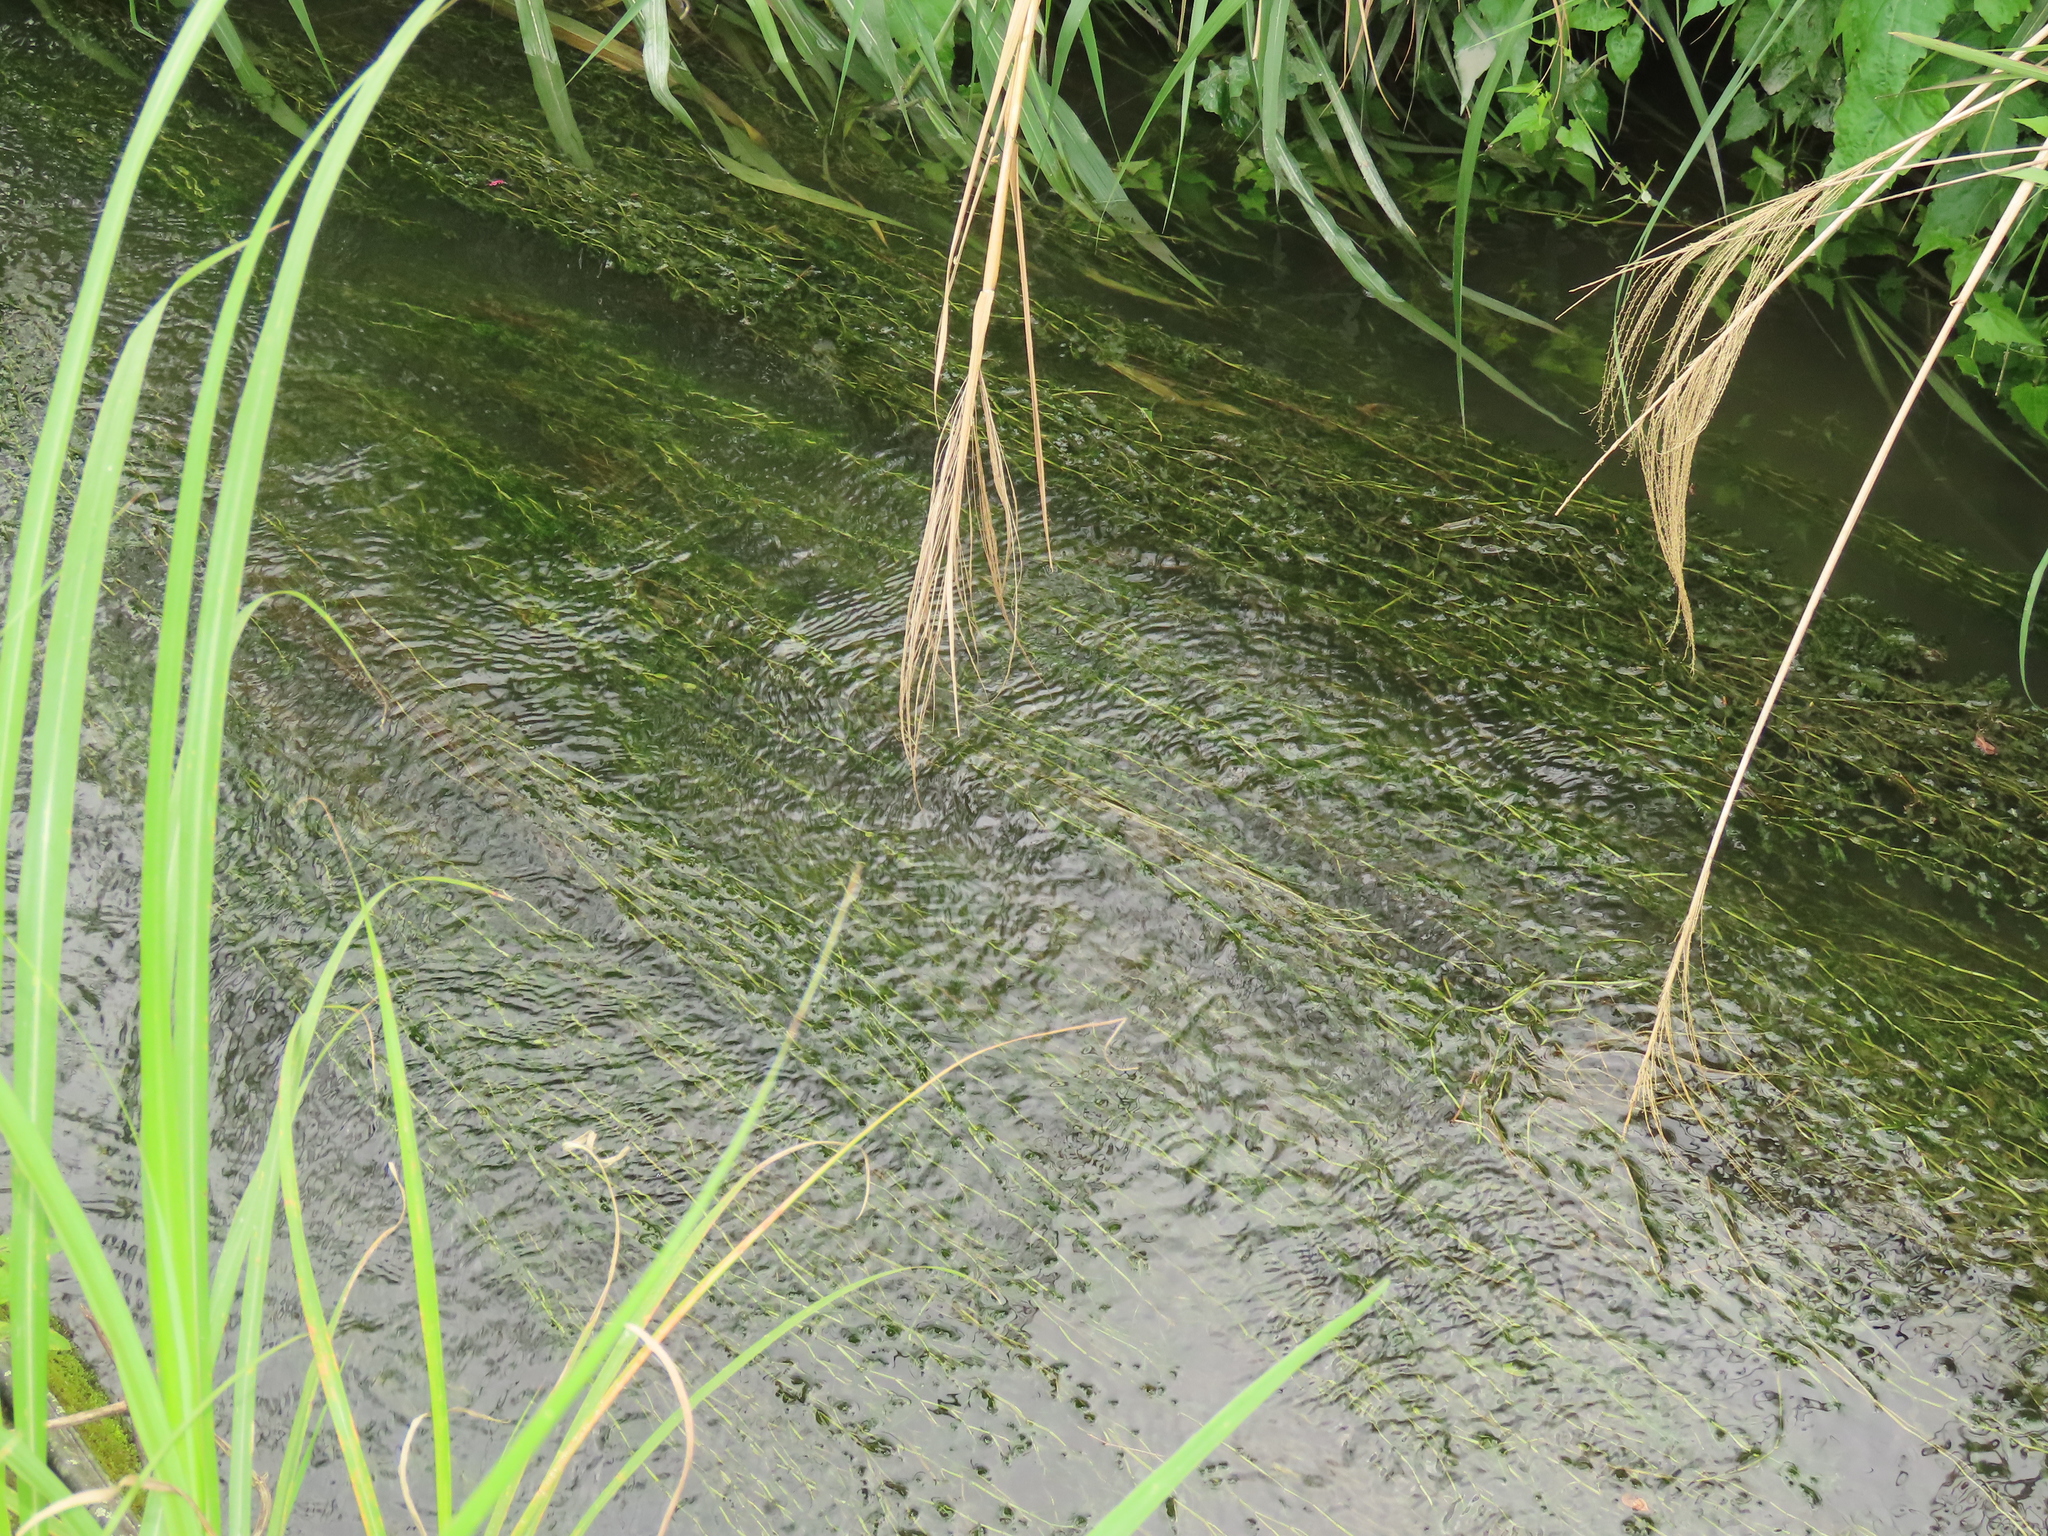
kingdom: Plantae
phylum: Tracheophyta
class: Liliopsida
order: Alismatales
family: Potamogetonaceae
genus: Potamogeton
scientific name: Potamogeton crispus
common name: Curled pondweed
